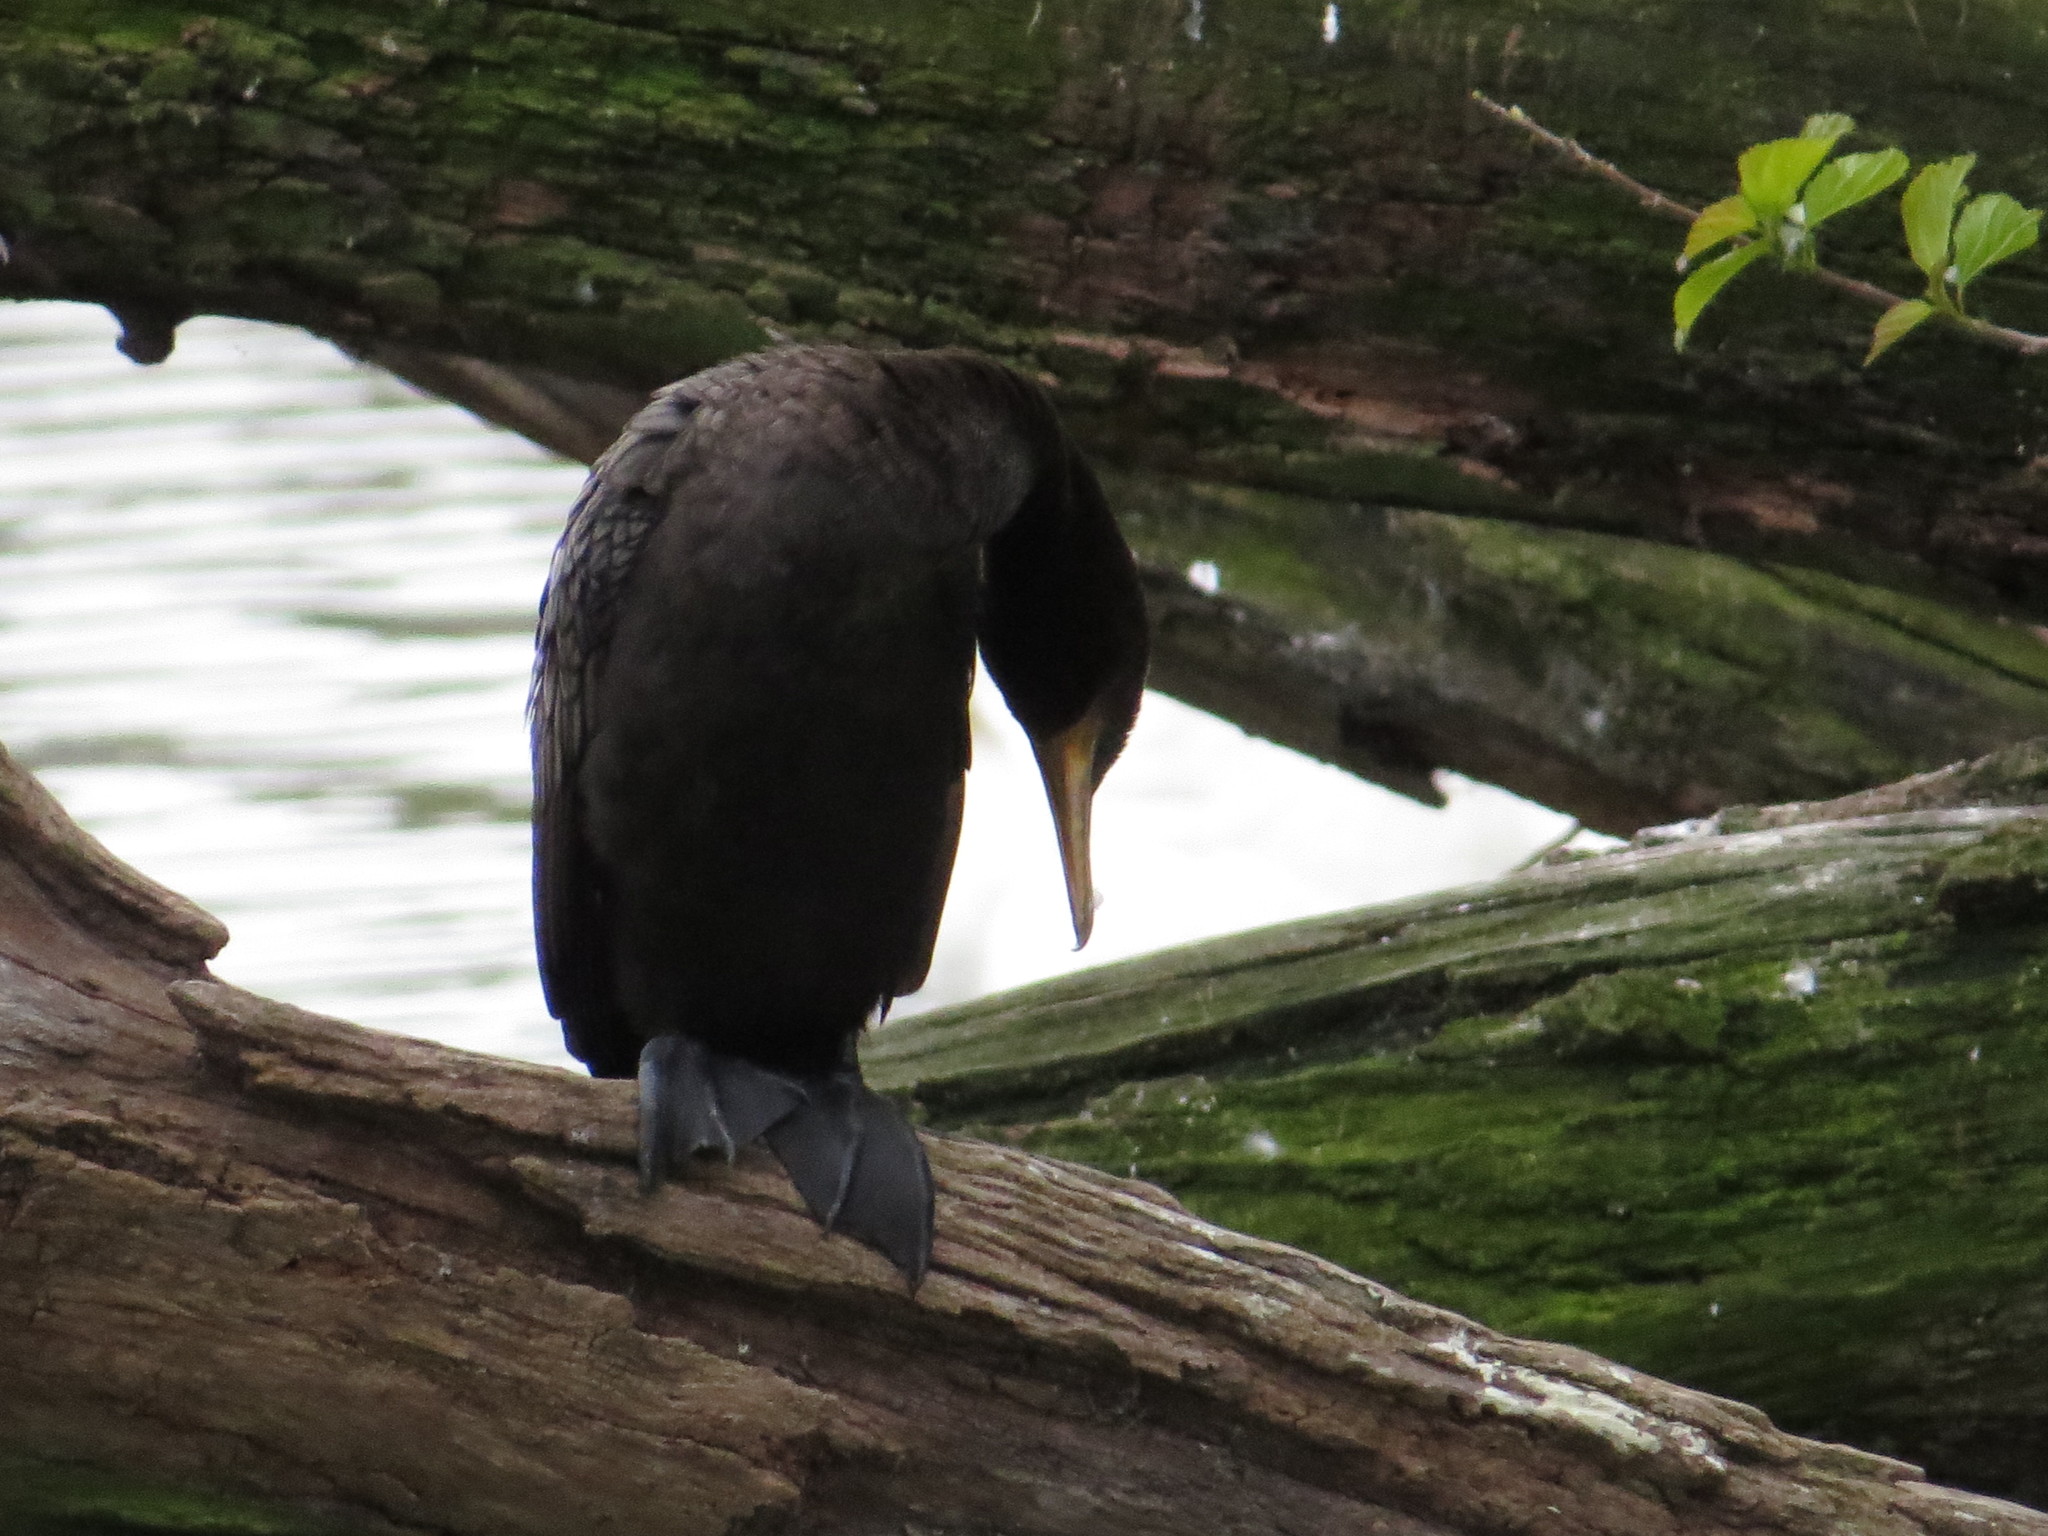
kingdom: Animalia
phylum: Chordata
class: Aves
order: Suliformes
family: Phalacrocoracidae
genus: Phalacrocorax
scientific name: Phalacrocorax brasilianus
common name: Neotropic cormorant
